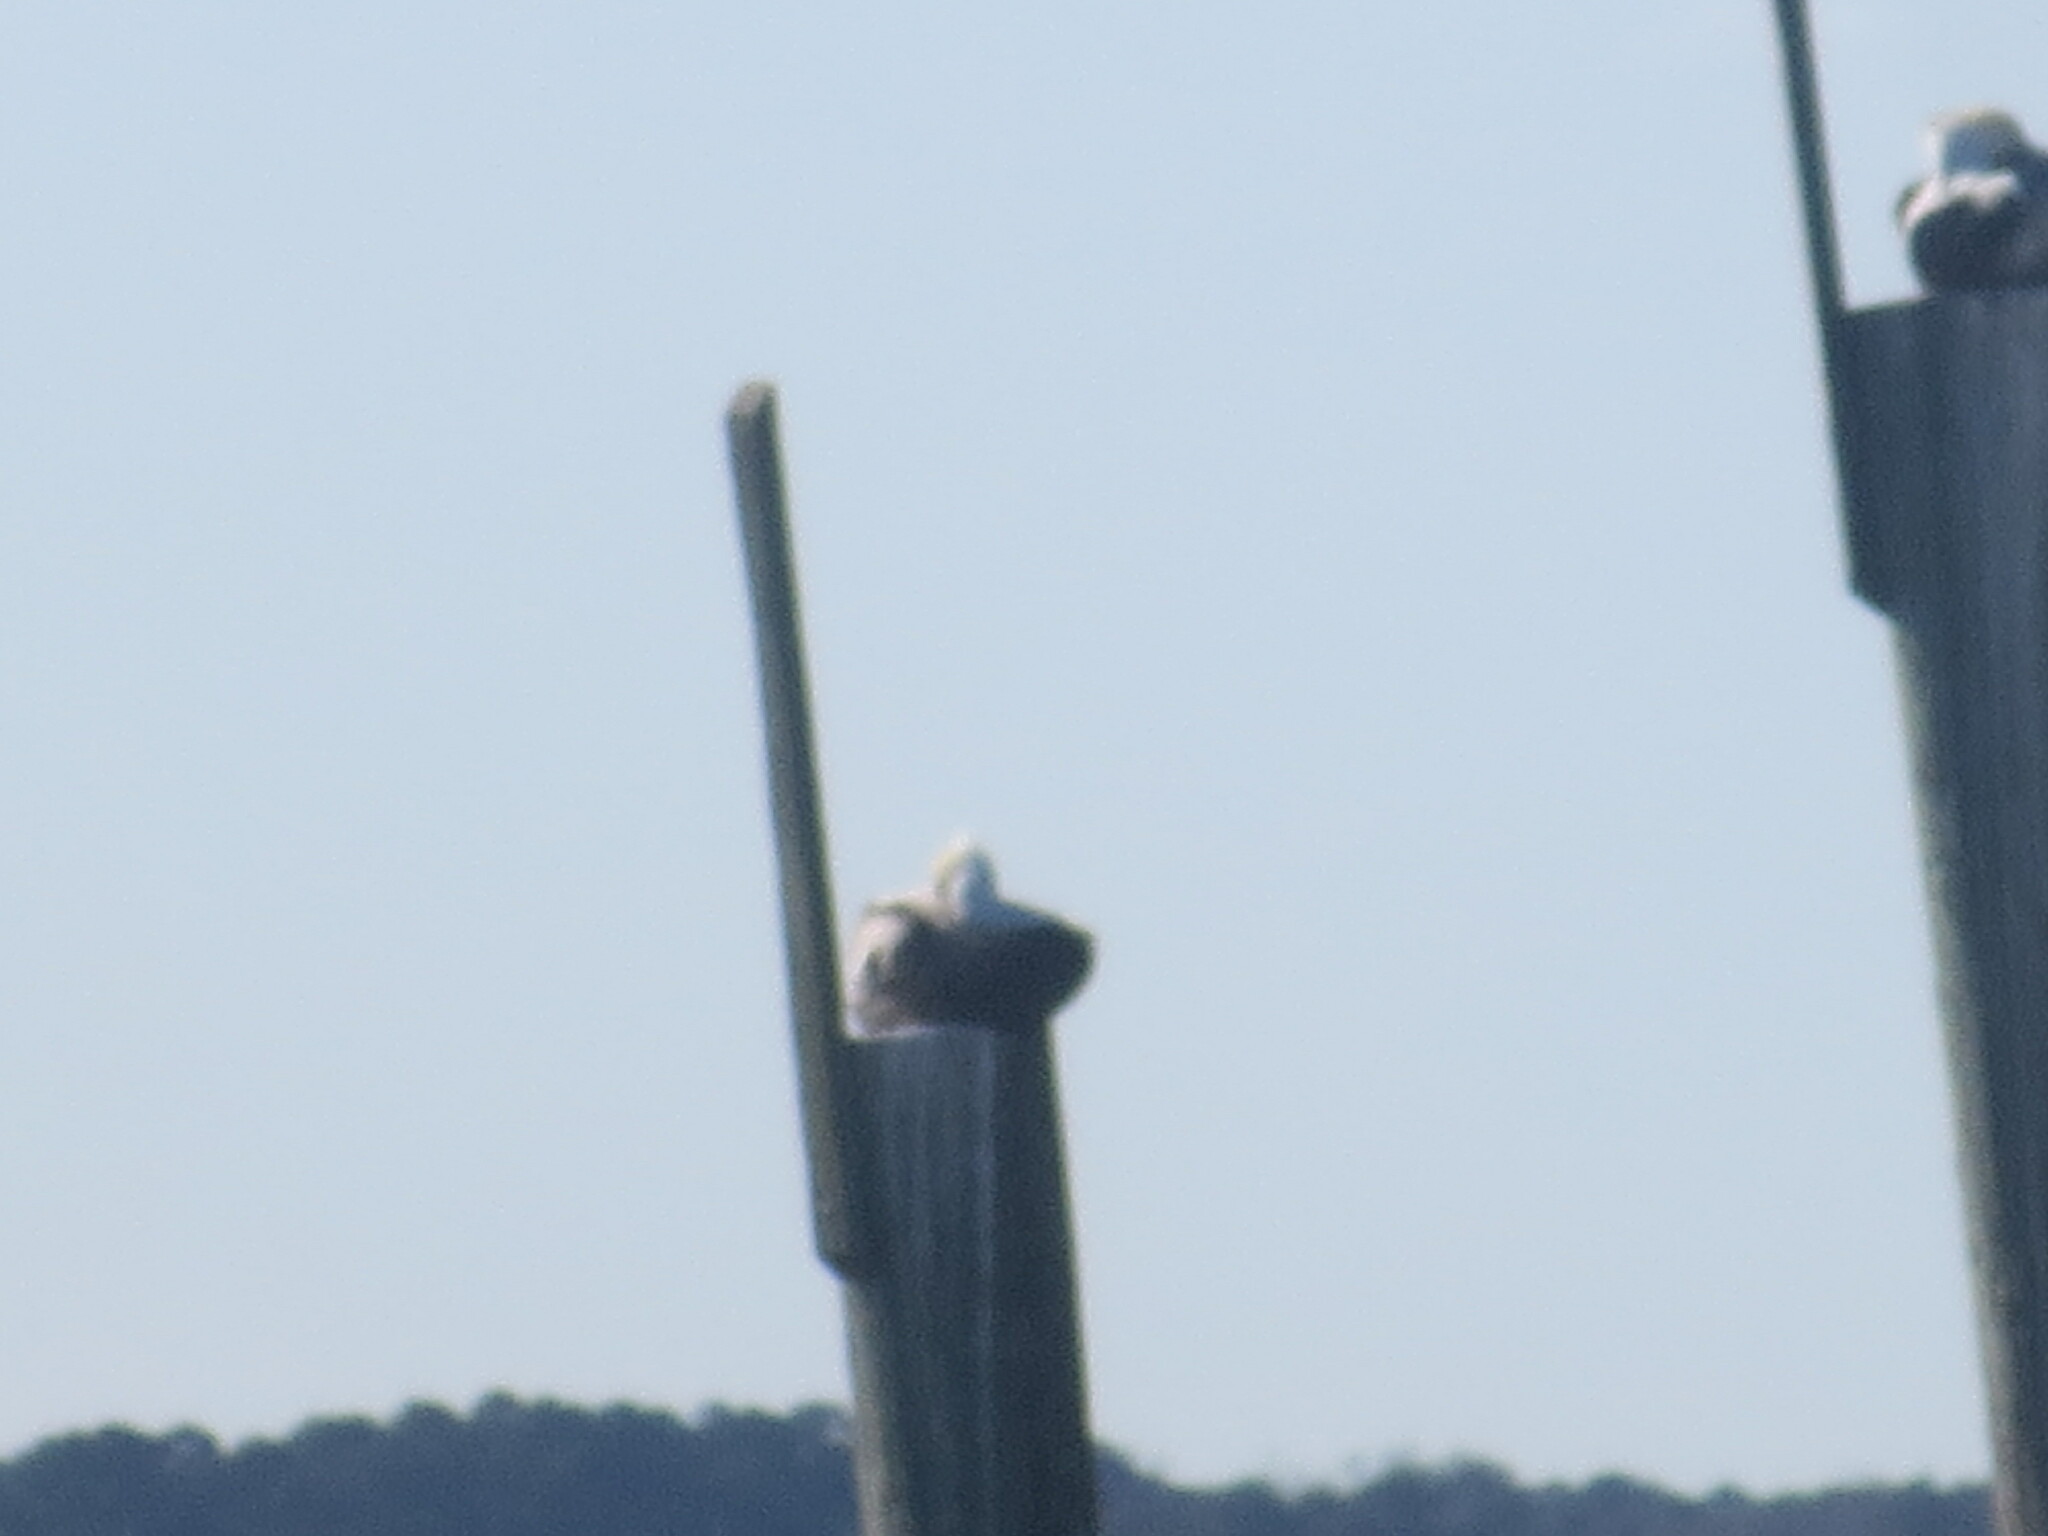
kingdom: Animalia
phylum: Chordata
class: Aves
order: Pelecaniformes
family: Pelecanidae
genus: Pelecanus
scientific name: Pelecanus occidentalis
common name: Brown pelican
